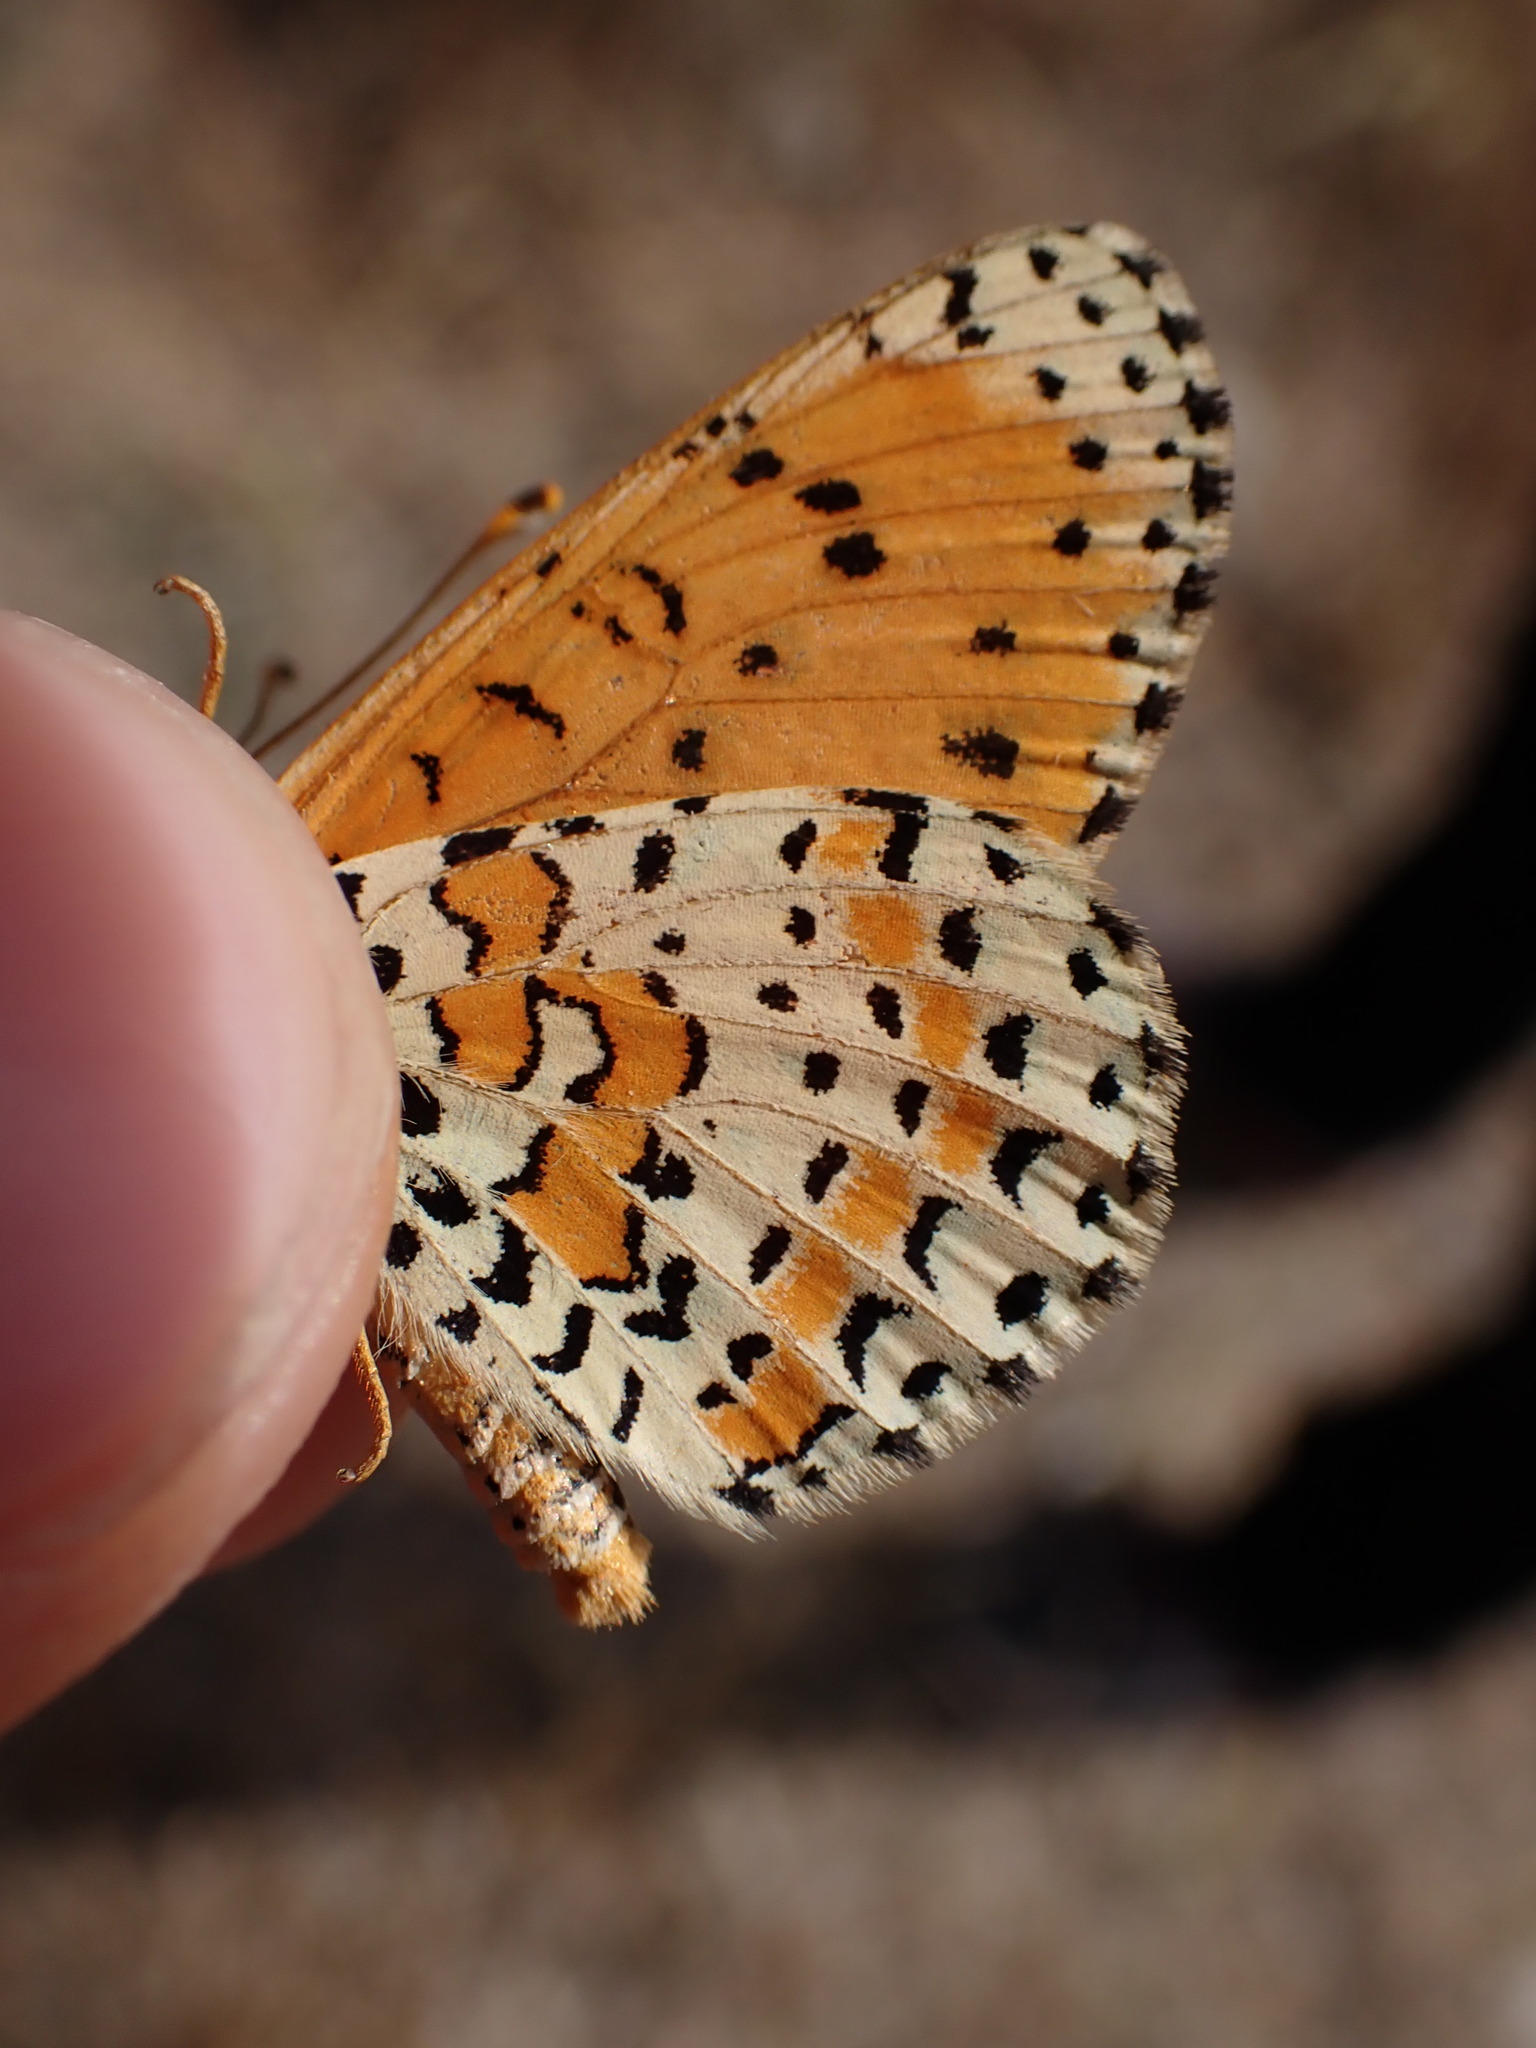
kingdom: Animalia
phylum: Arthropoda
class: Insecta
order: Lepidoptera
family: Nymphalidae
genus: Melitaea
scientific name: Melitaea didyma
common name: Spotted fritillary
